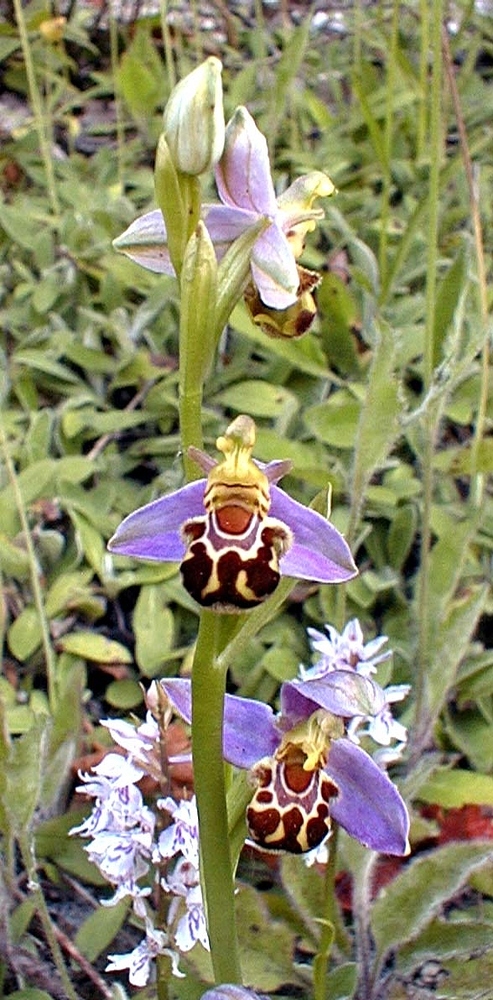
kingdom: Plantae
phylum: Tracheophyta
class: Liliopsida
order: Asparagales
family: Orchidaceae
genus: Ophrys
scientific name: Ophrys apifera
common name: Bee orchid
